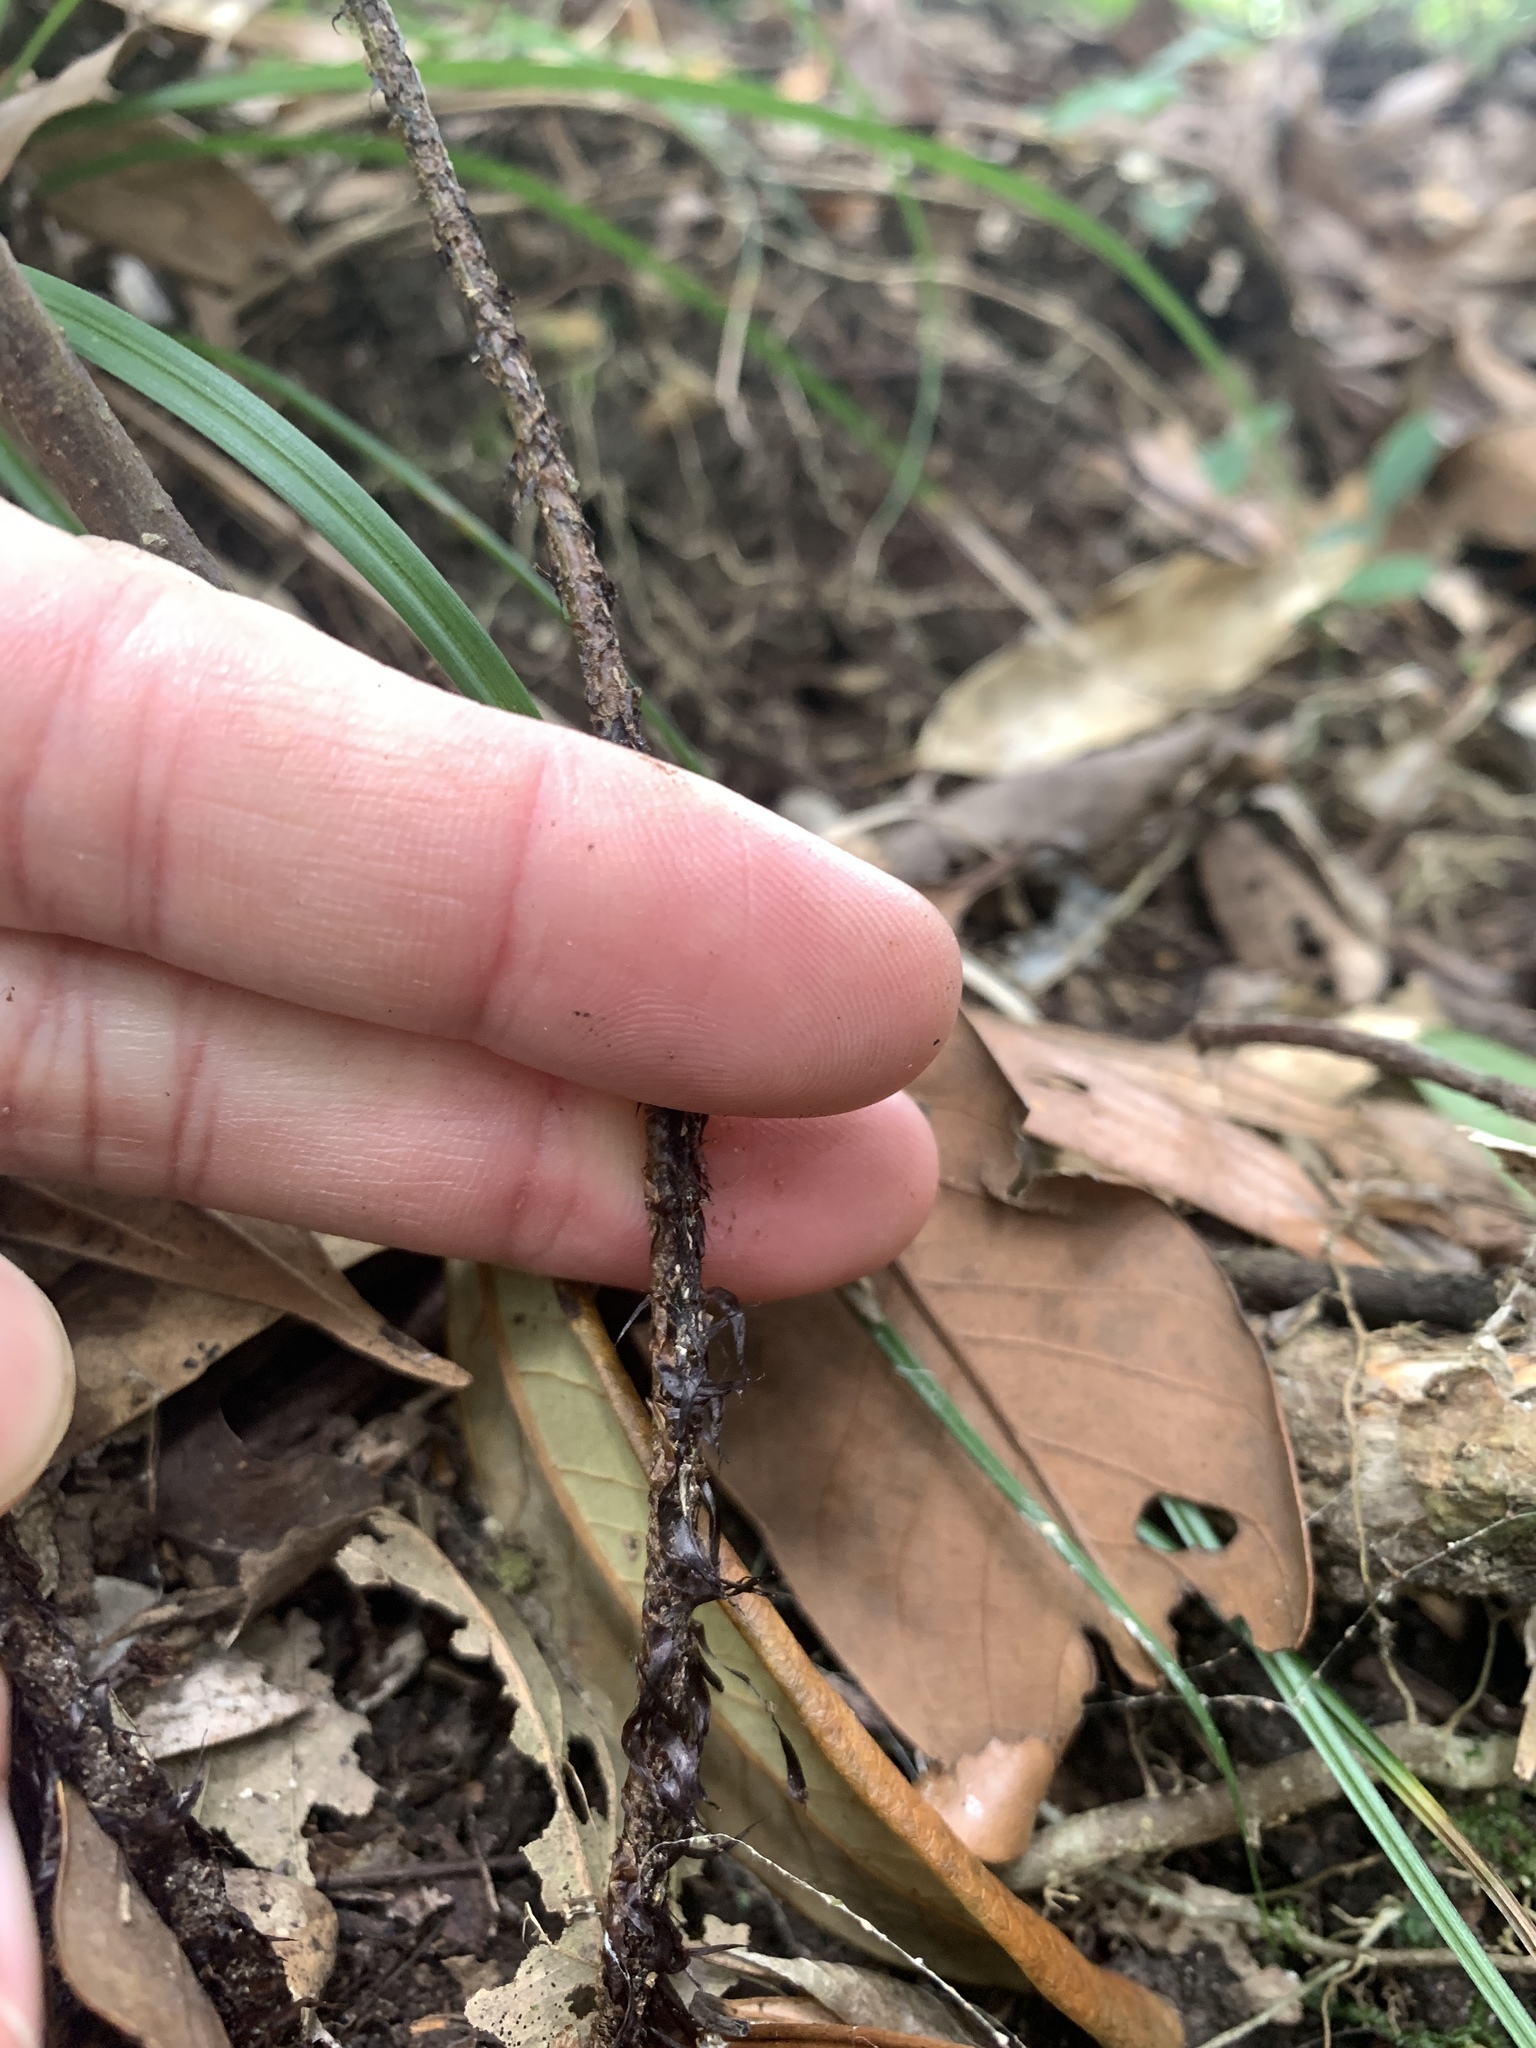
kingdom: Plantae
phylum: Tracheophyta
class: Polypodiopsida
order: Polypodiales
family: Dryopteridaceae
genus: Dryopteris
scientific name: Dryopteris formosana
